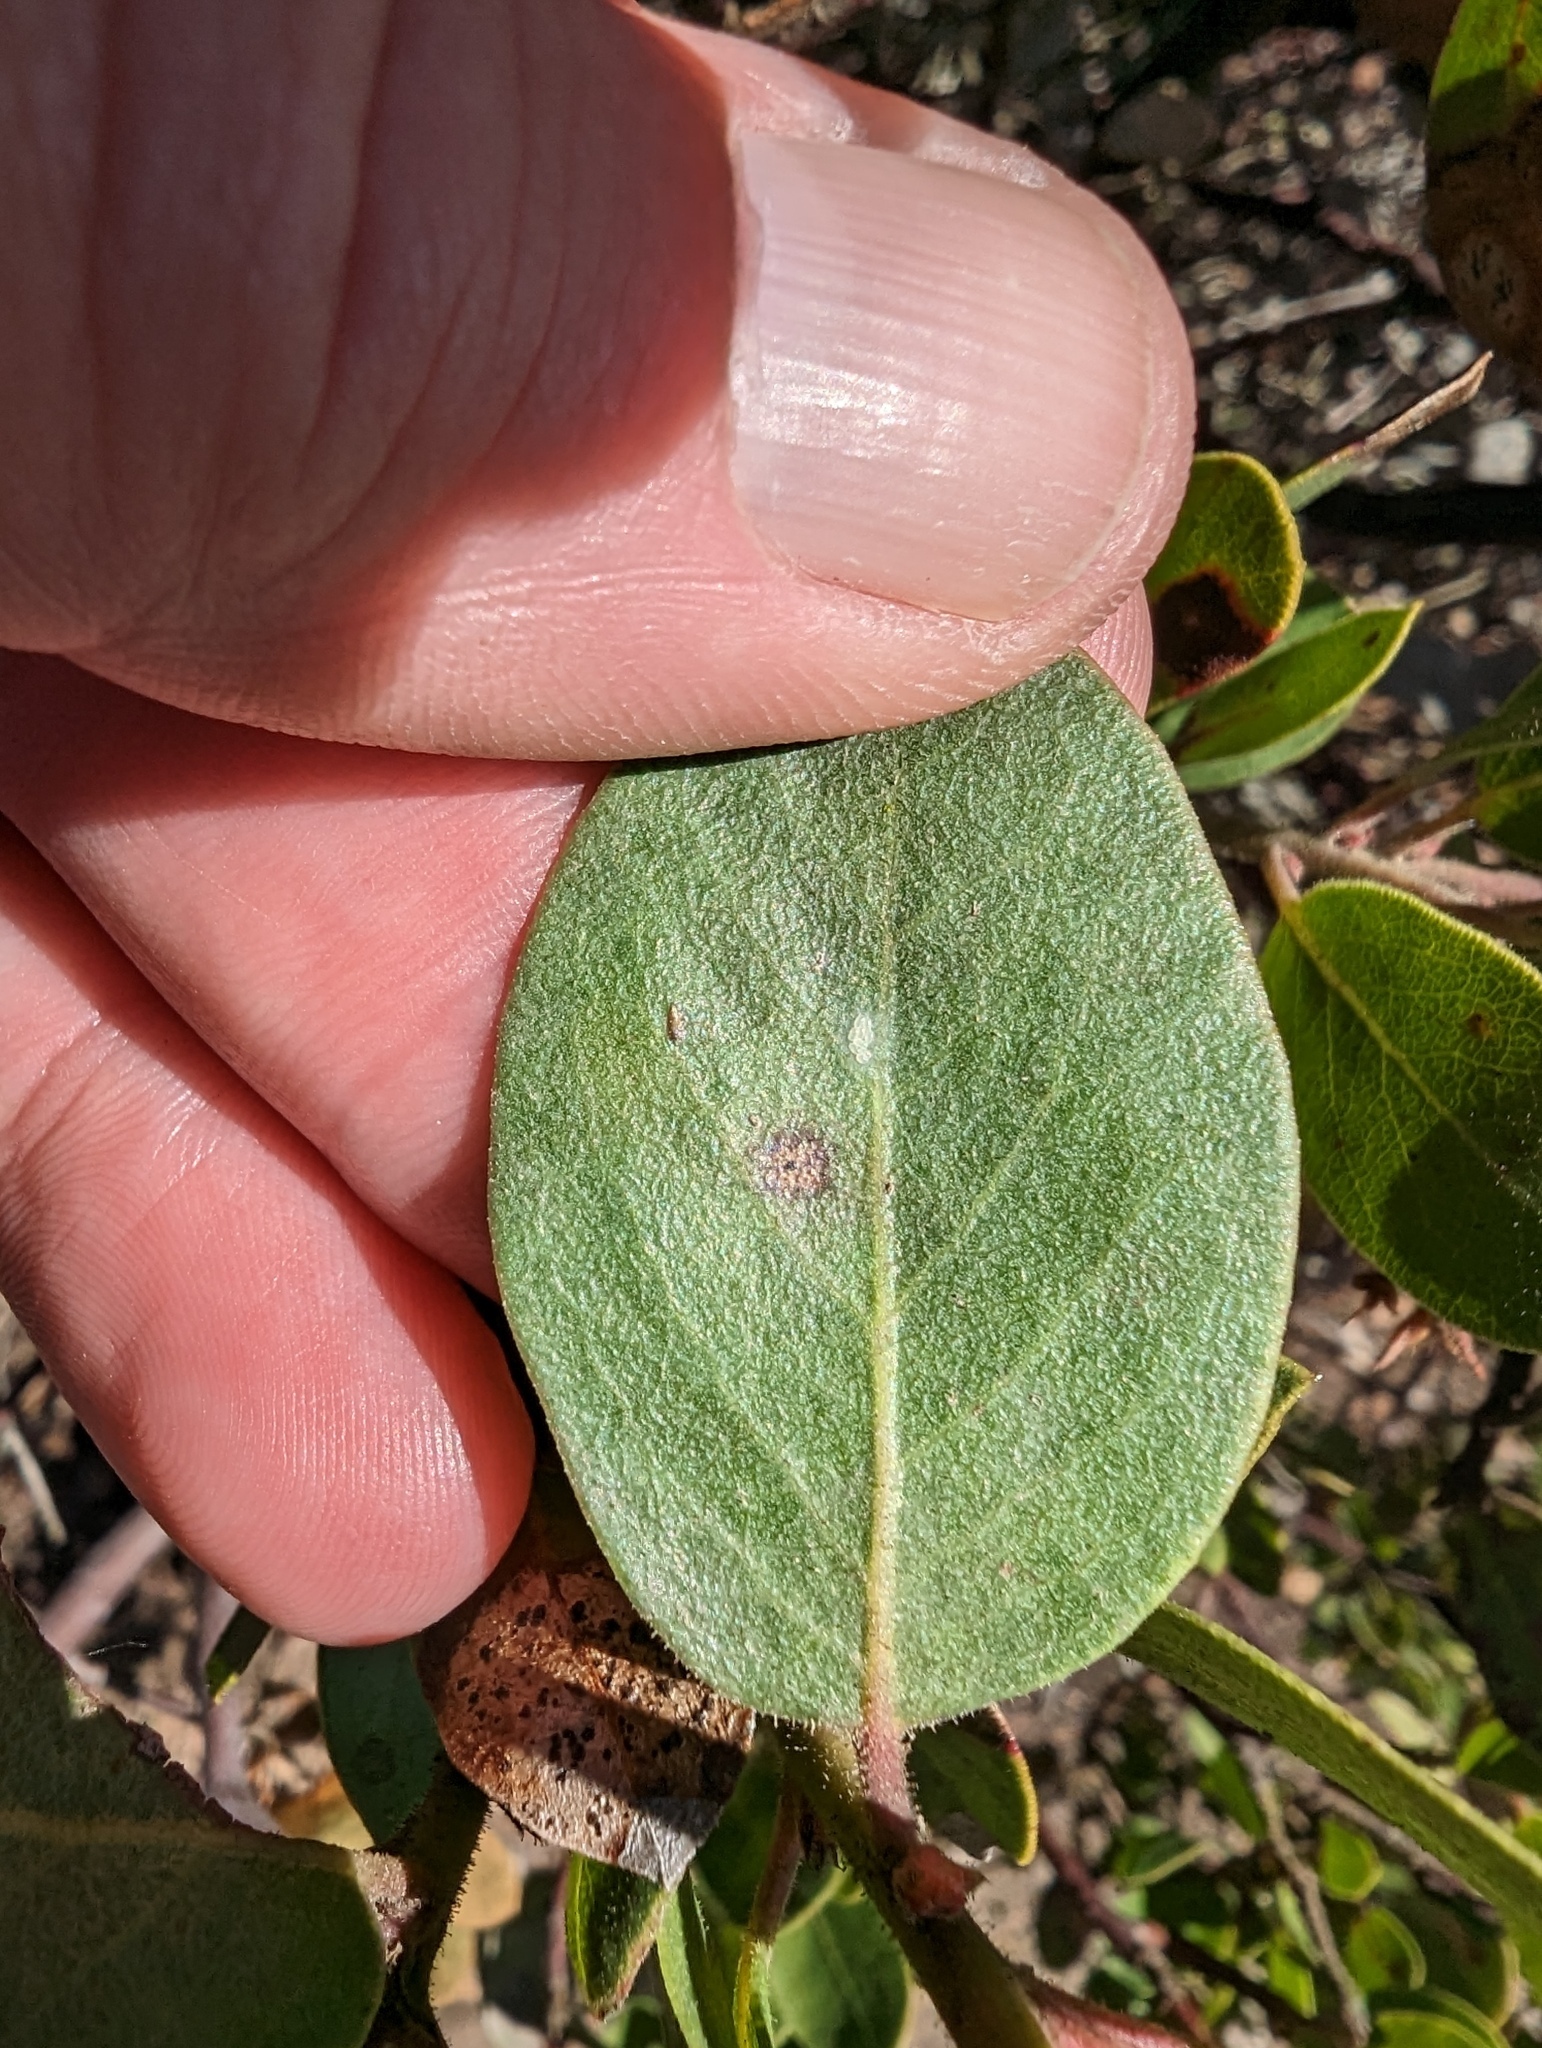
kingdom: Plantae
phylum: Tracheophyta
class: Magnoliopsida
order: Ericales
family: Ericaceae
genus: Arctostaphylos
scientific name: Arctostaphylos montereyensis
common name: Monterey manzanita
